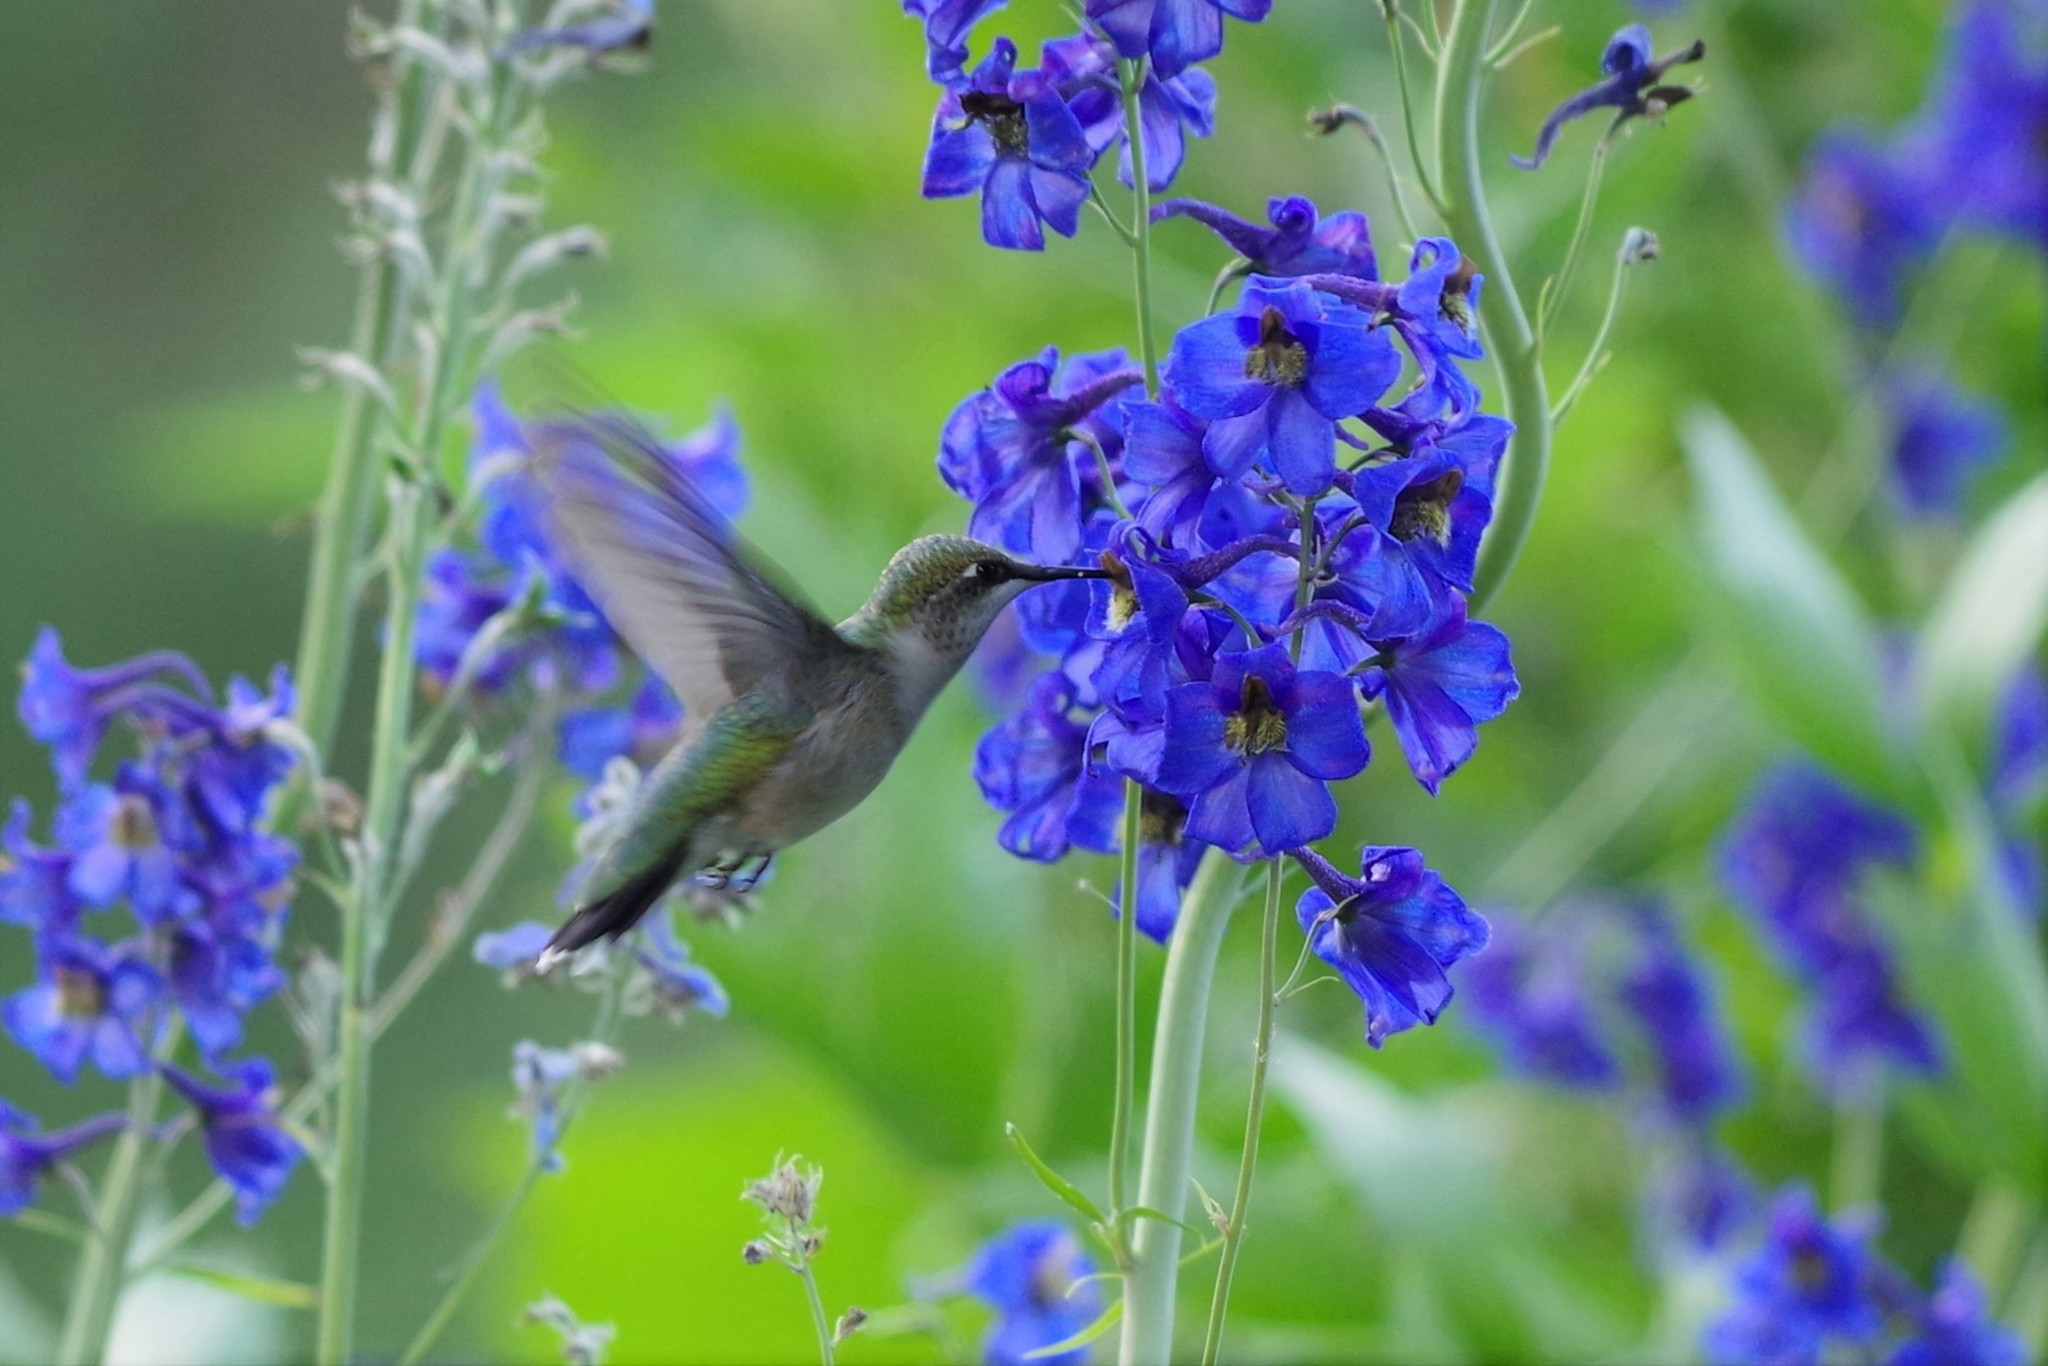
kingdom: Animalia
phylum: Chordata
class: Aves
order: Apodiformes
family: Trochilidae
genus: Archilochus
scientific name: Archilochus colubris
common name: Ruby-throated hummingbird
